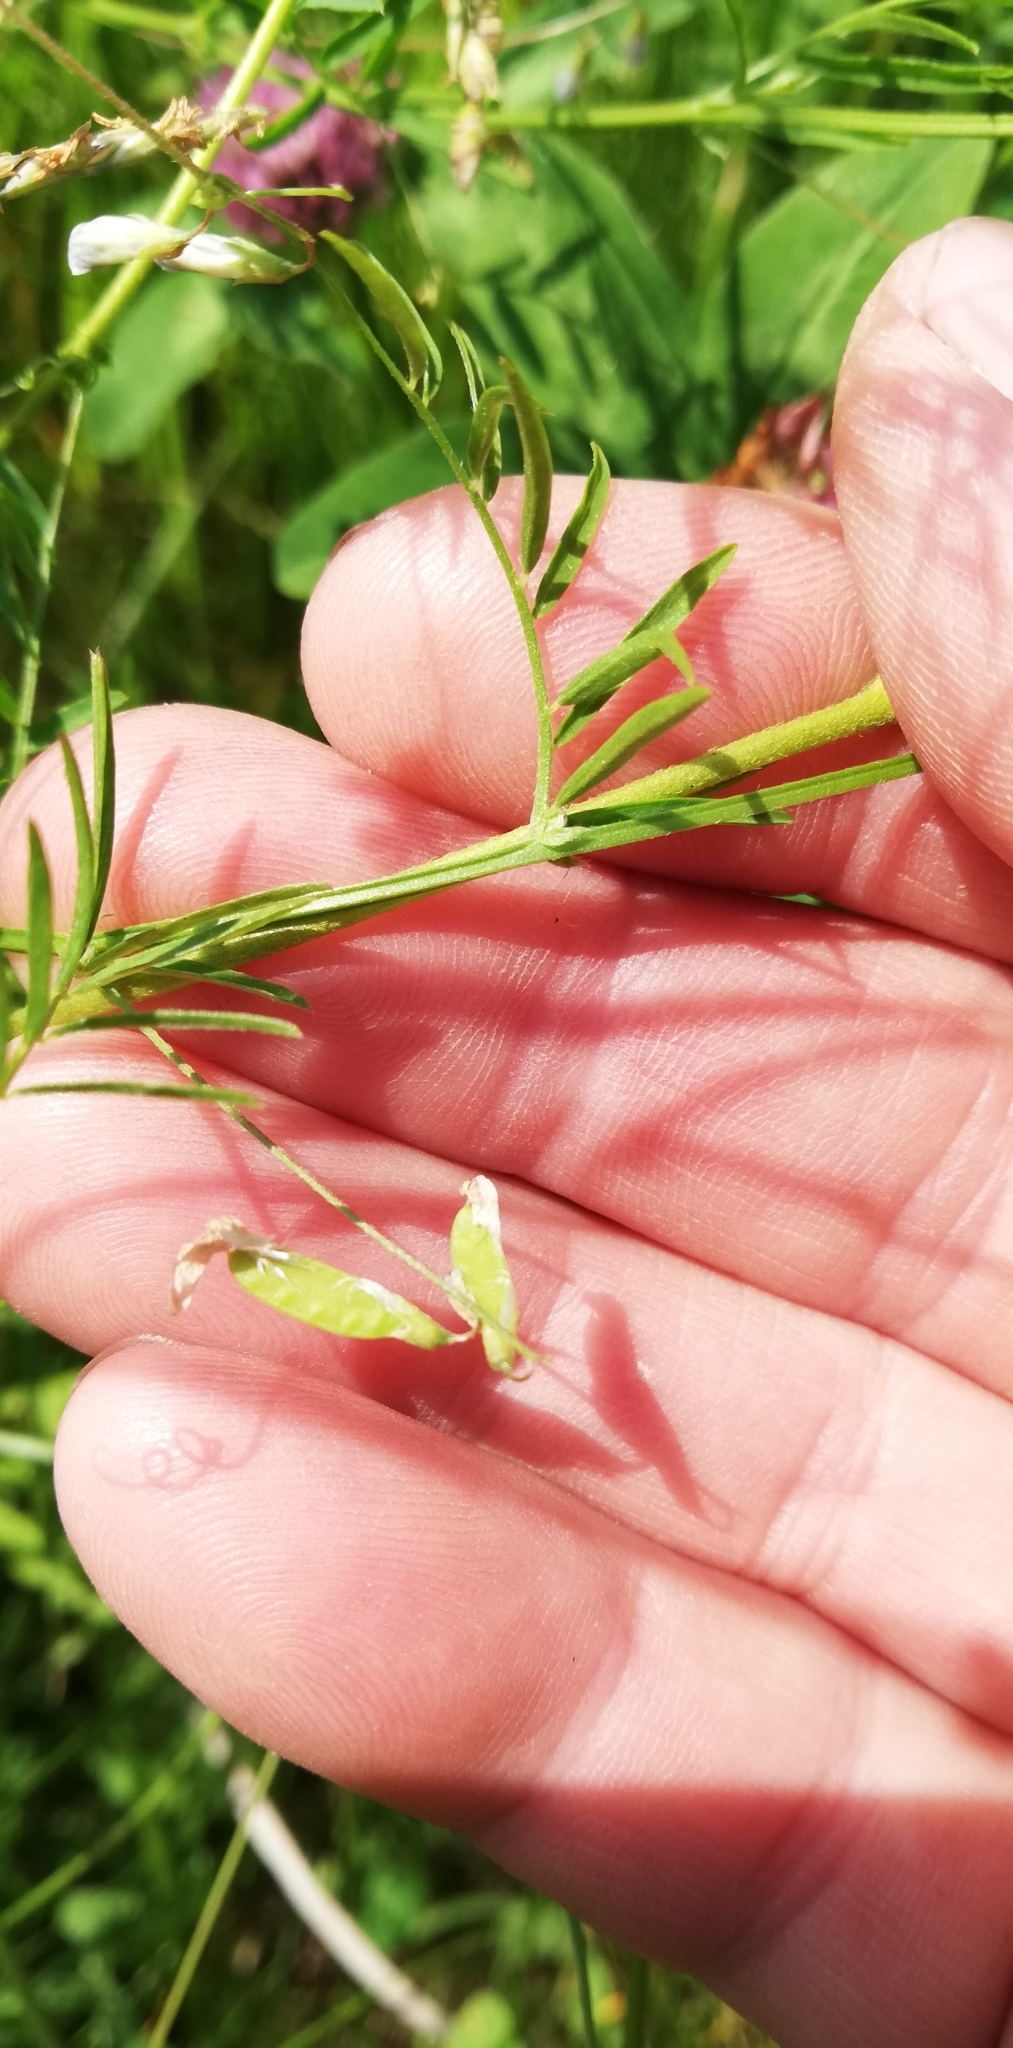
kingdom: Plantae
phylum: Tracheophyta
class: Magnoliopsida
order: Fabales
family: Fabaceae
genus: Vicia
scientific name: Vicia tetrasperma
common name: Smooth tare
